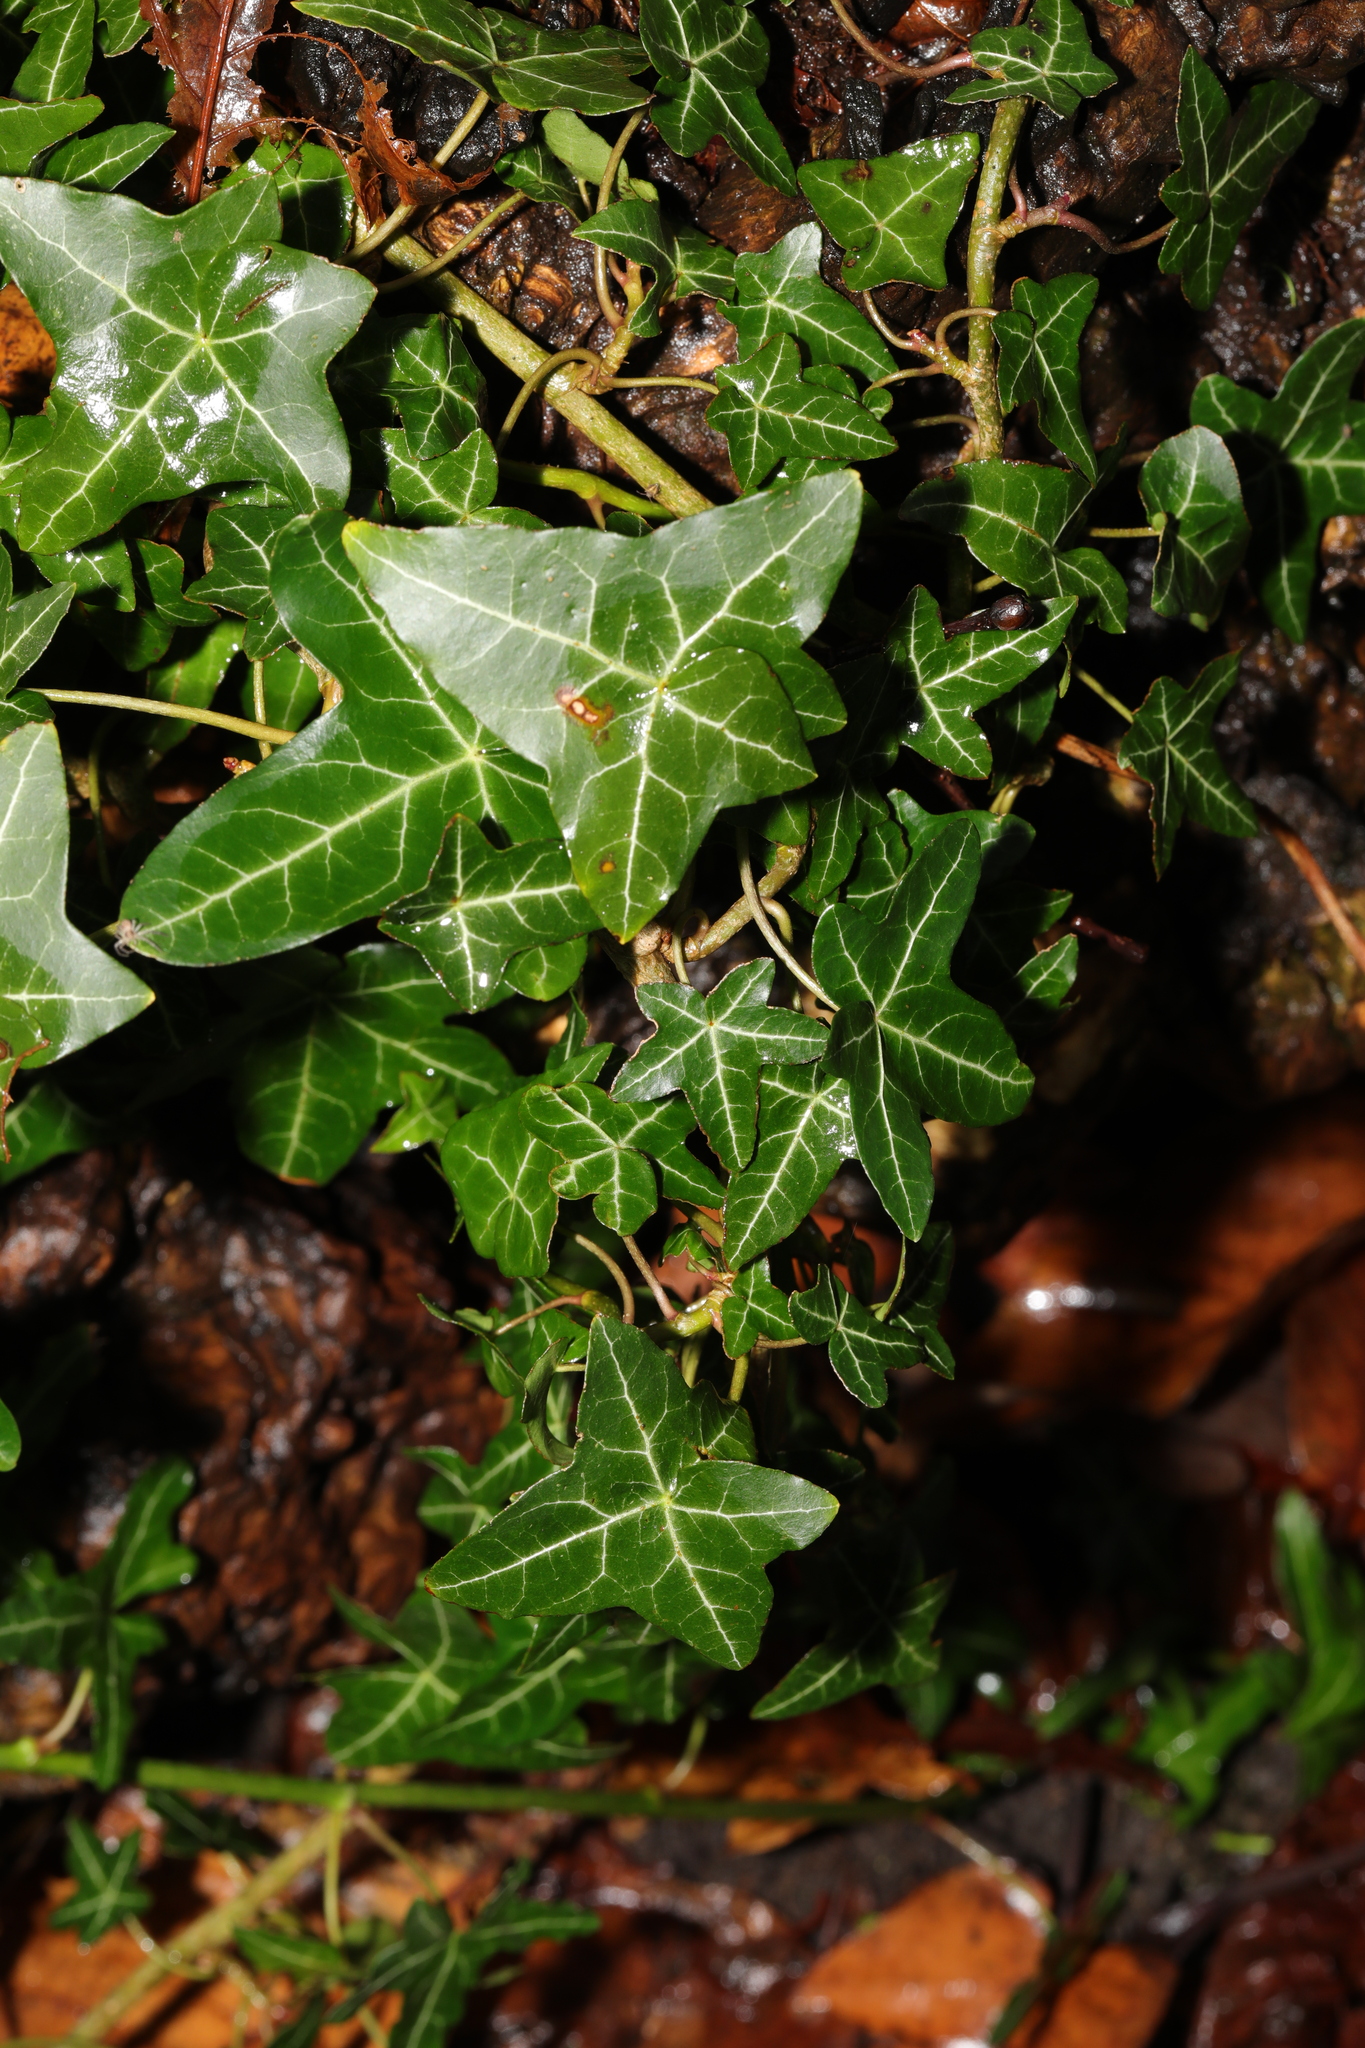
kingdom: Plantae
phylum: Tracheophyta
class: Magnoliopsida
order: Apiales
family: Araliaceae
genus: Hedera
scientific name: Hedera helix
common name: Ivy
